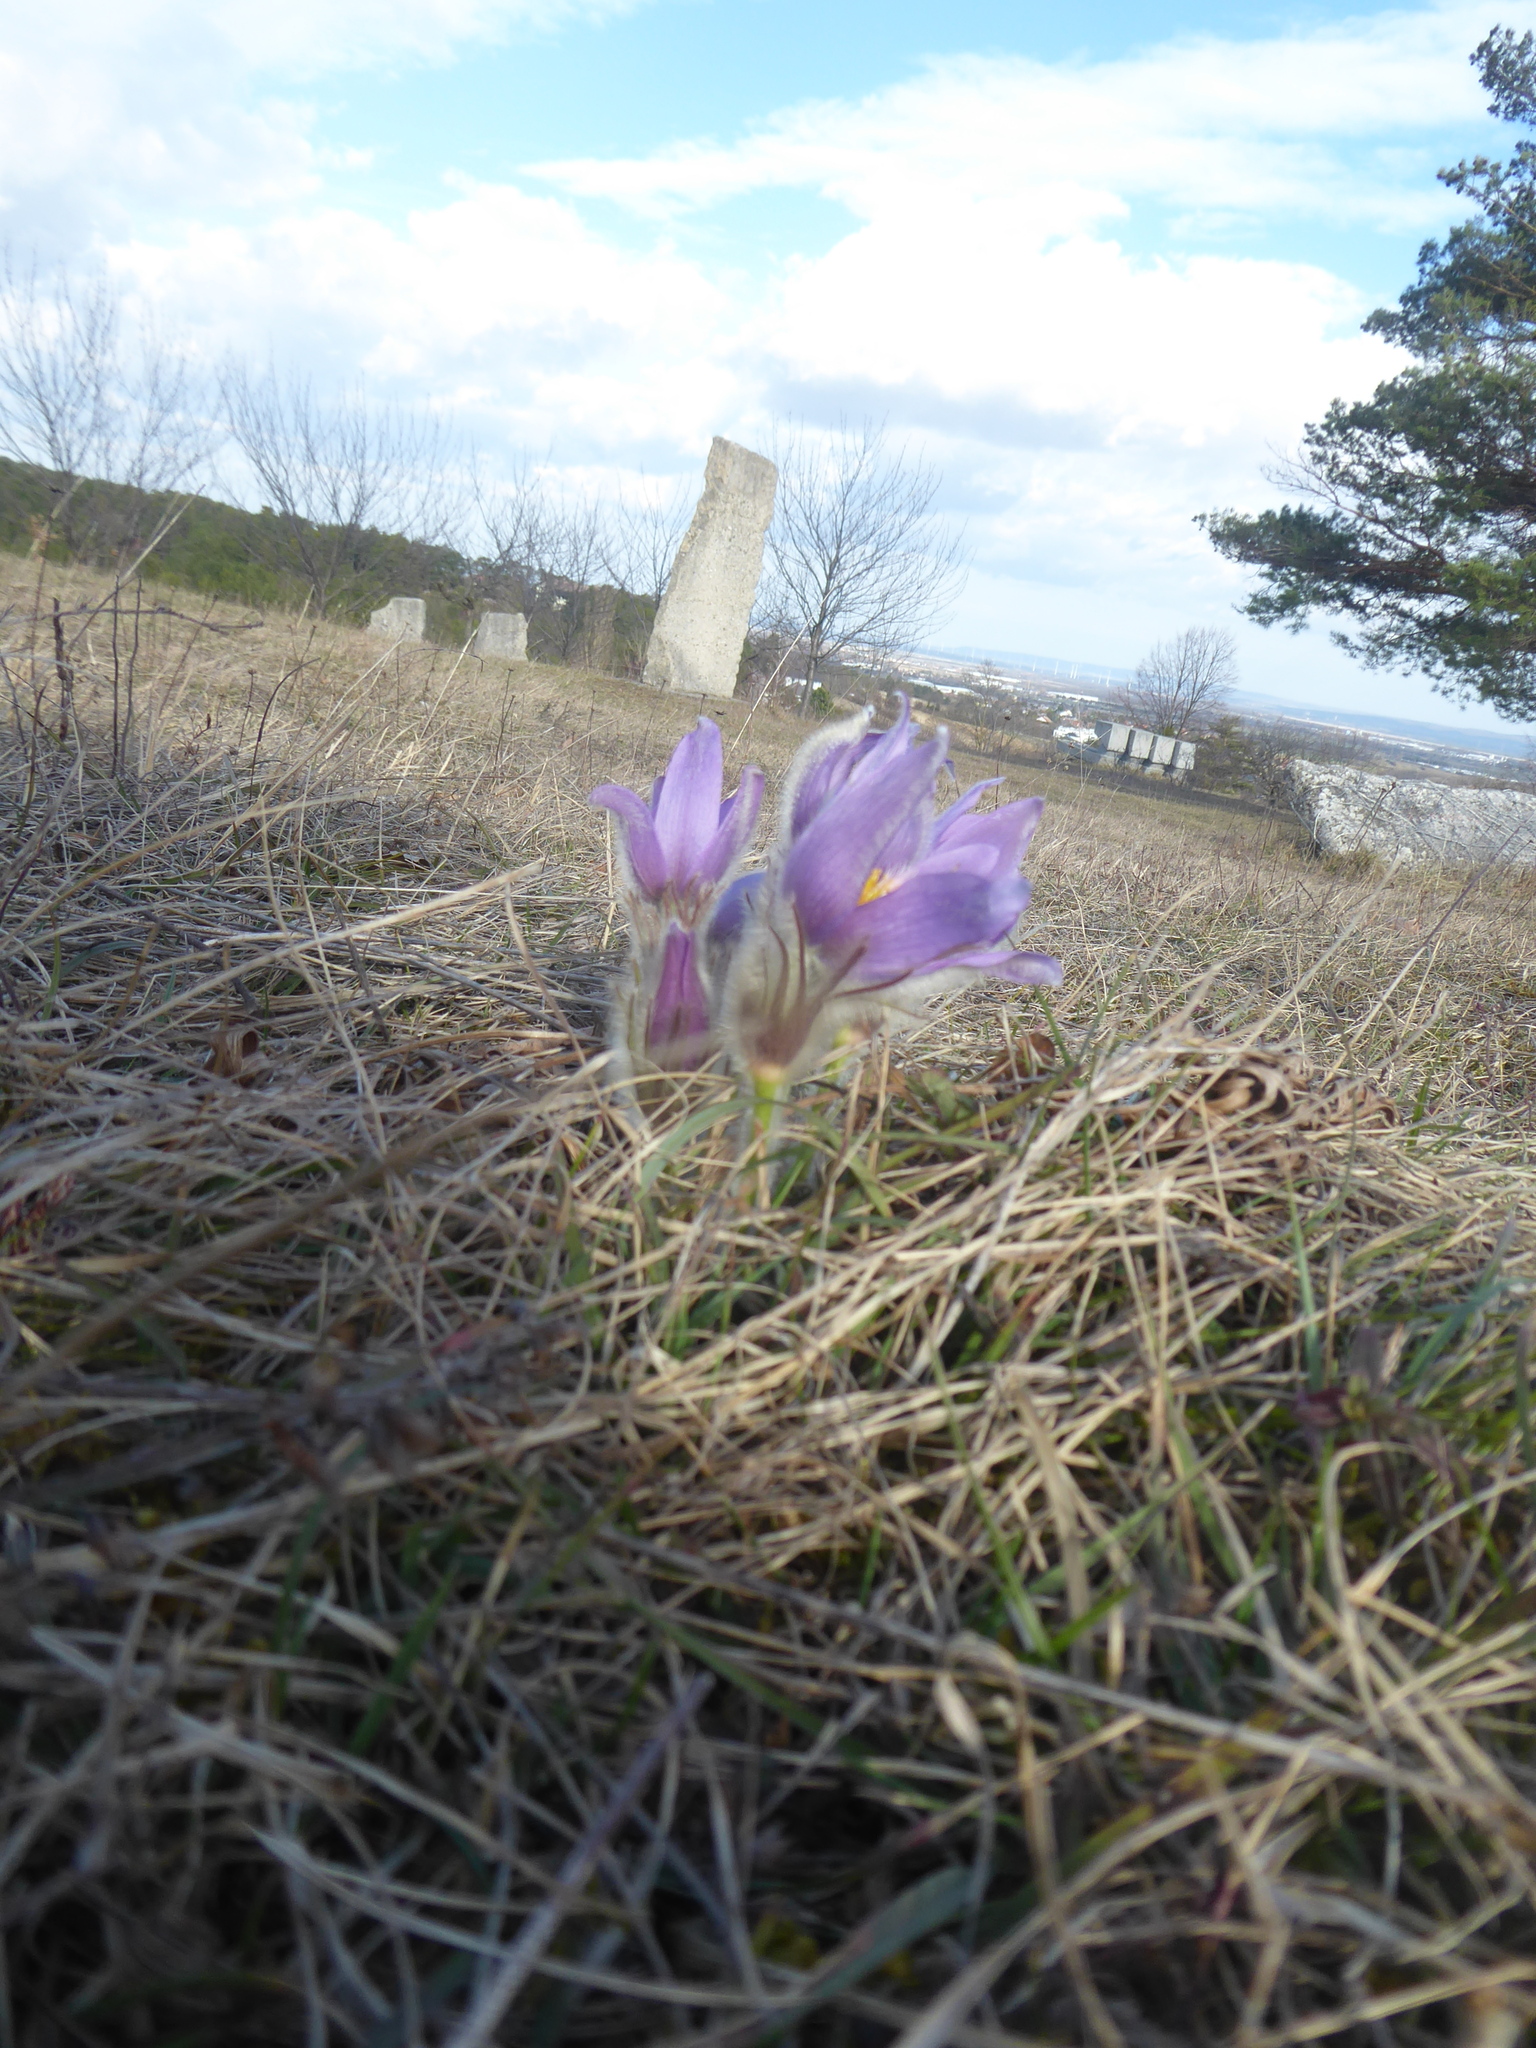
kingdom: Plantae
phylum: Tracheophyta
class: Magnoliopsida
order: Ranunculales
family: Ranunculaceae
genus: Pulsatilla
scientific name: Pulsatilla grandis
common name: Greater pasque flower
